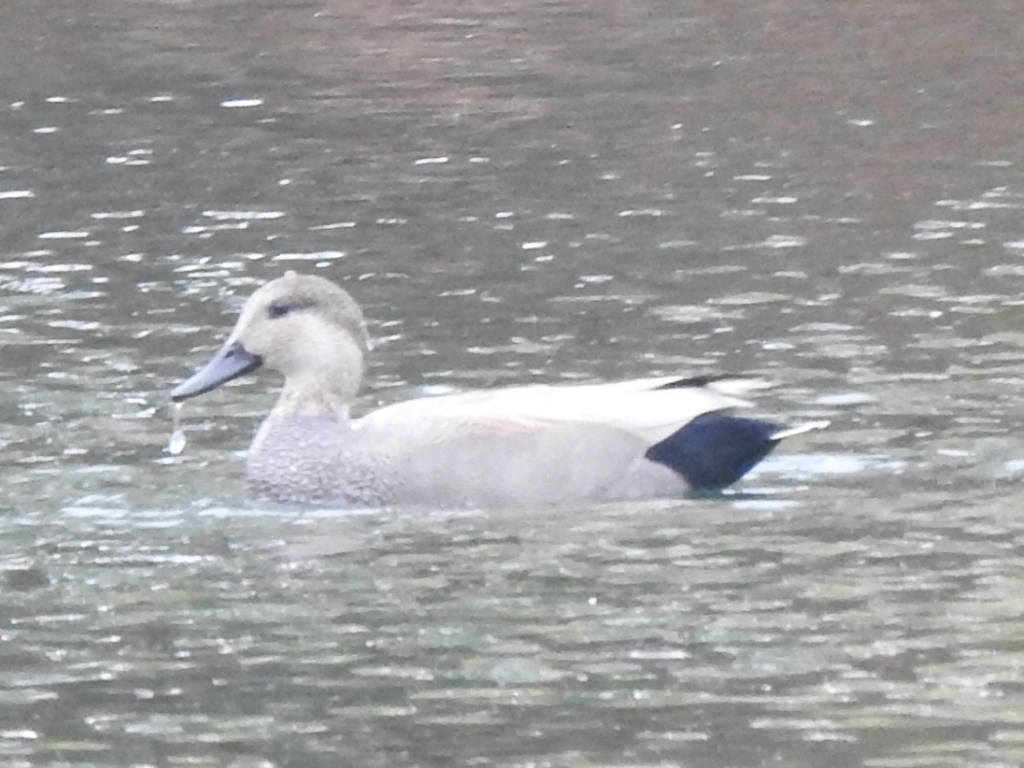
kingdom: Animalia
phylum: Chordata
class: Aves
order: Anseriformes
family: Anatidae
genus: Mareca
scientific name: Mareca strepera
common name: Gadwall
